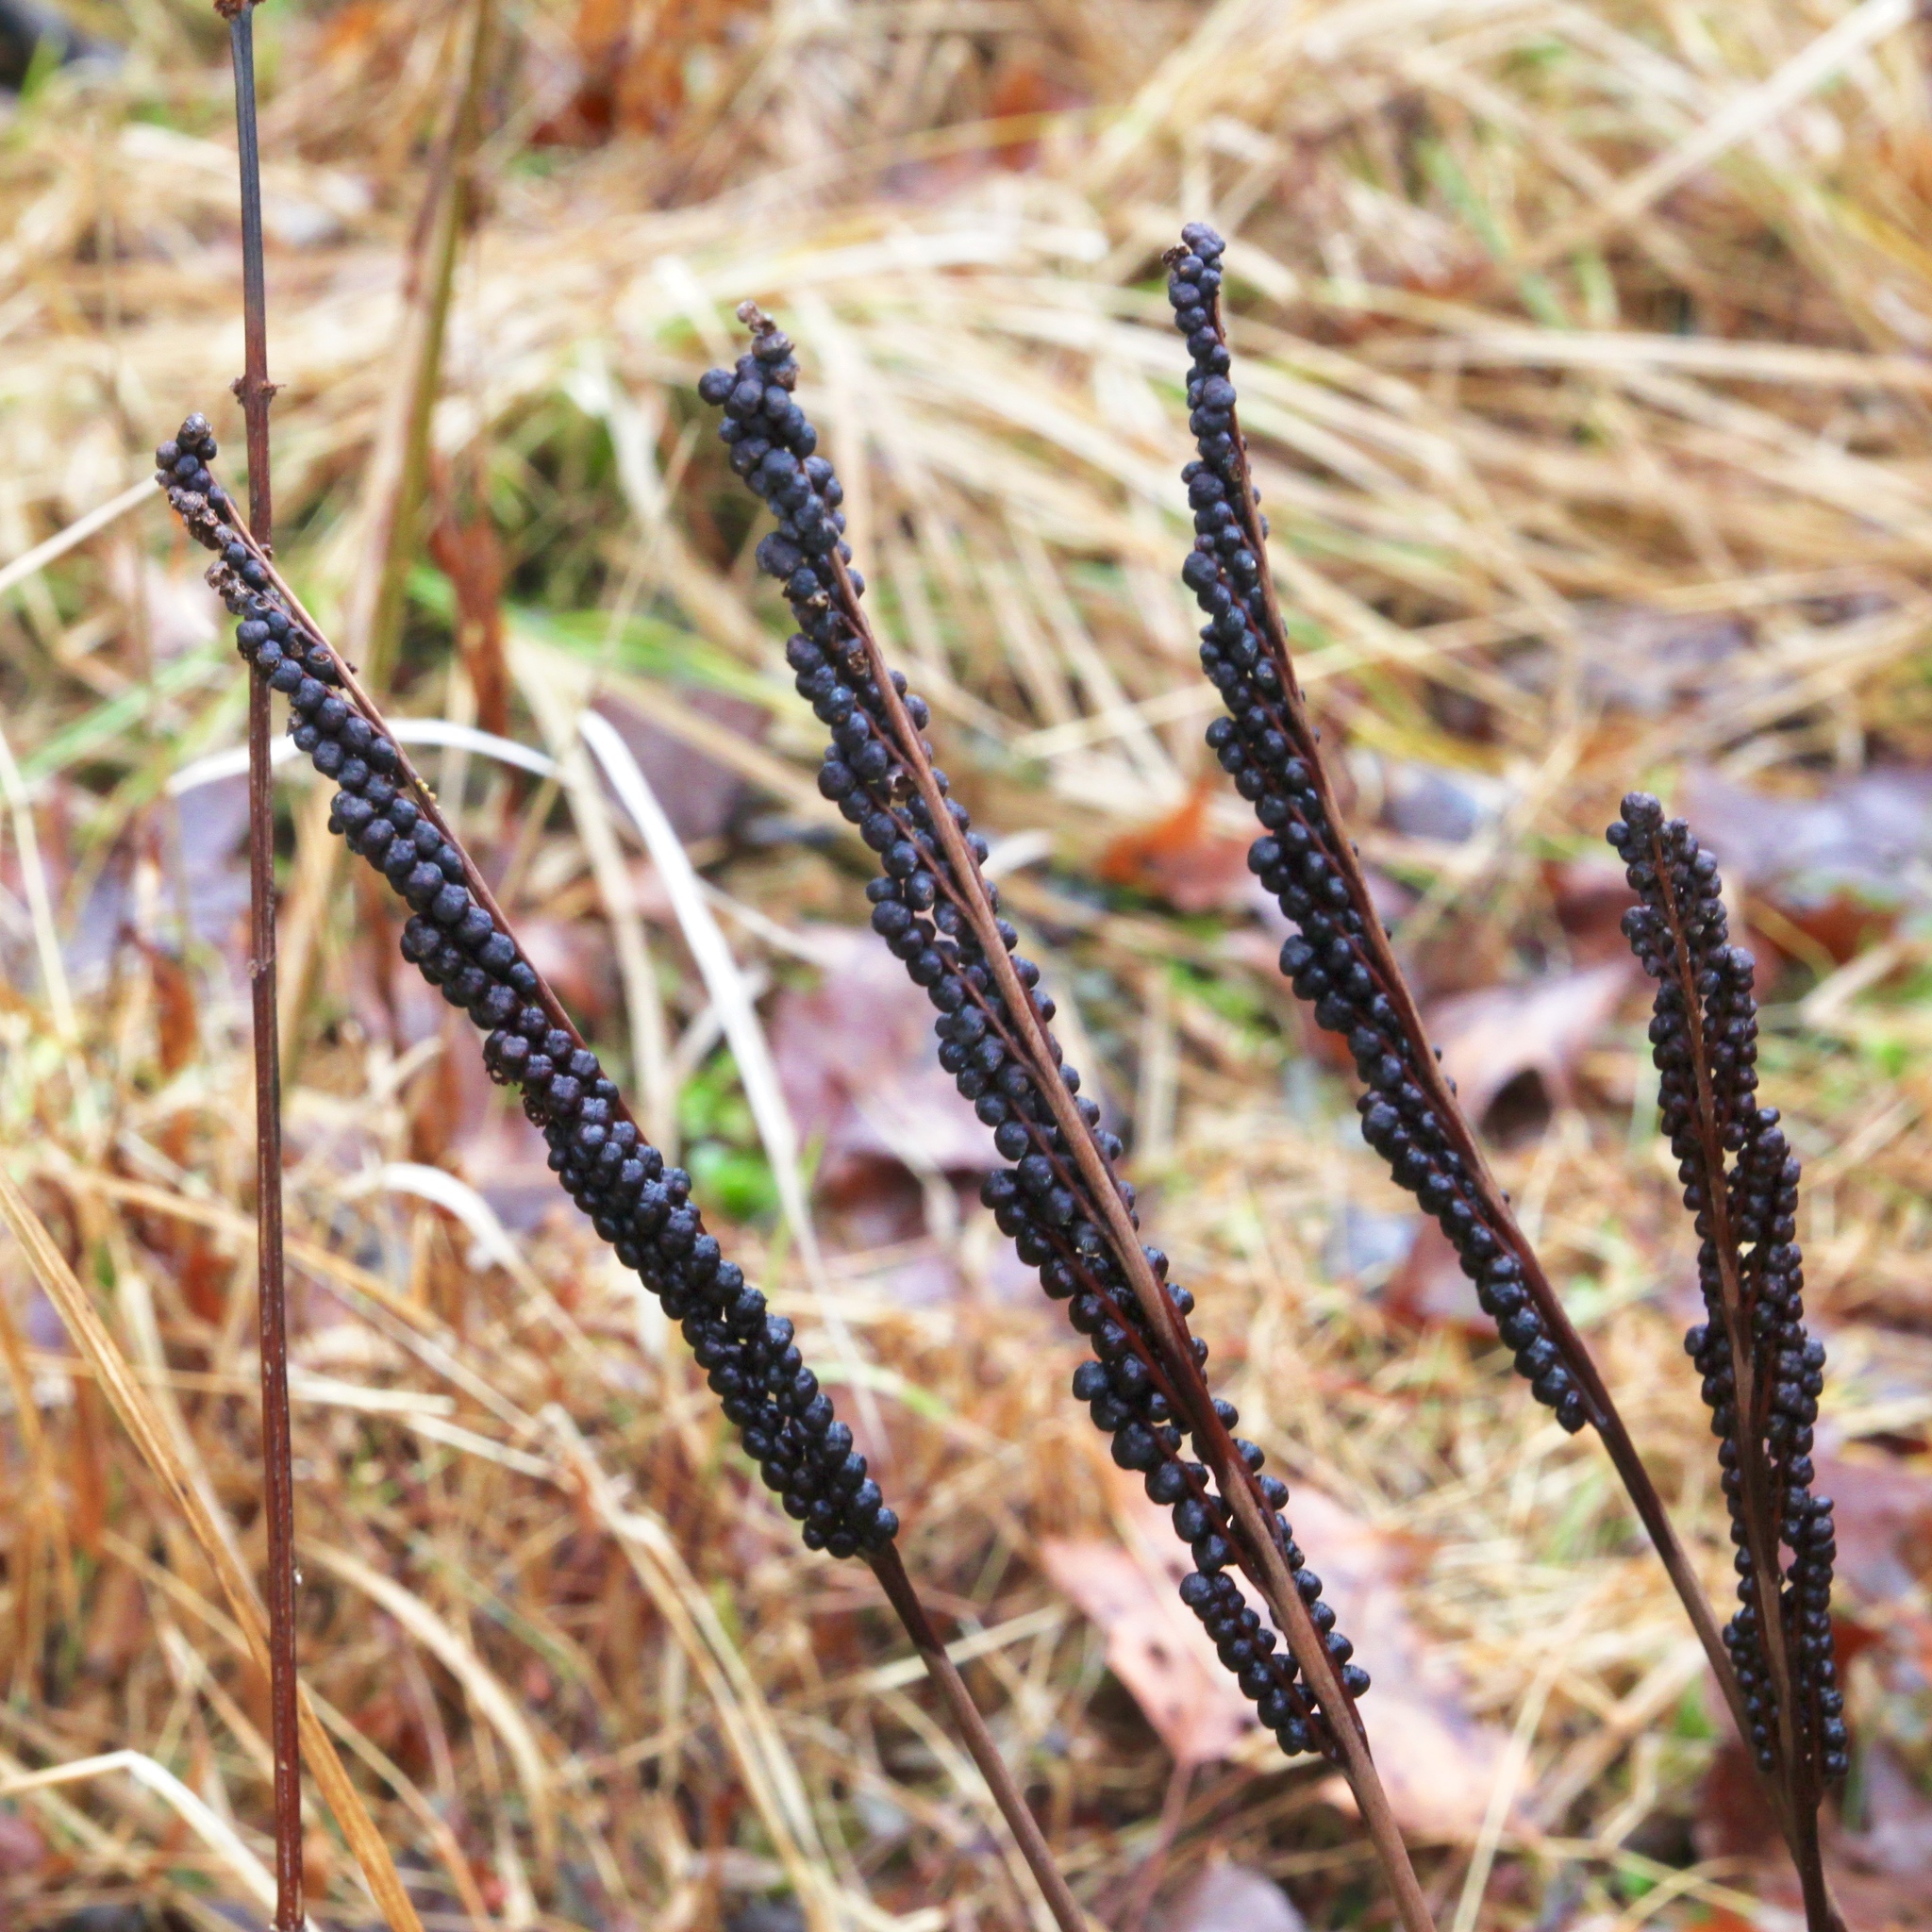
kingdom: Plantae
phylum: Tracheophyta
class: Polypodiopsida
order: Polypodiales
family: Onocleaceae
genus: Onoclea
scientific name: Onoclea sensibilis
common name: Sensitive fern
